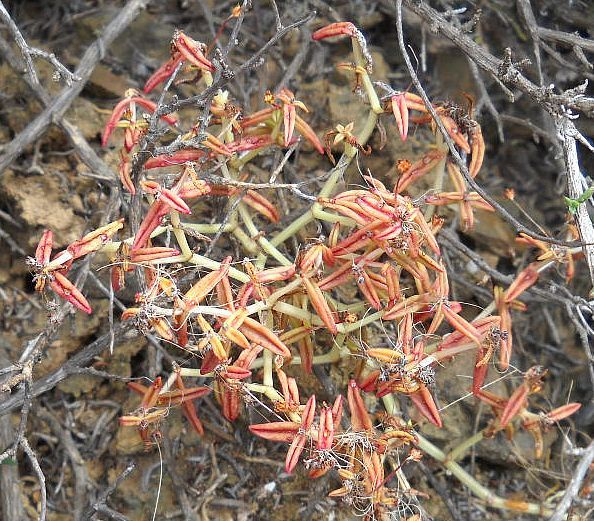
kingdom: Plantae
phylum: Tracheophyta
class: Magnoliopsida
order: Saxifragales
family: Crassulaceae
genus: Crassula
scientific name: Crassula expansa
